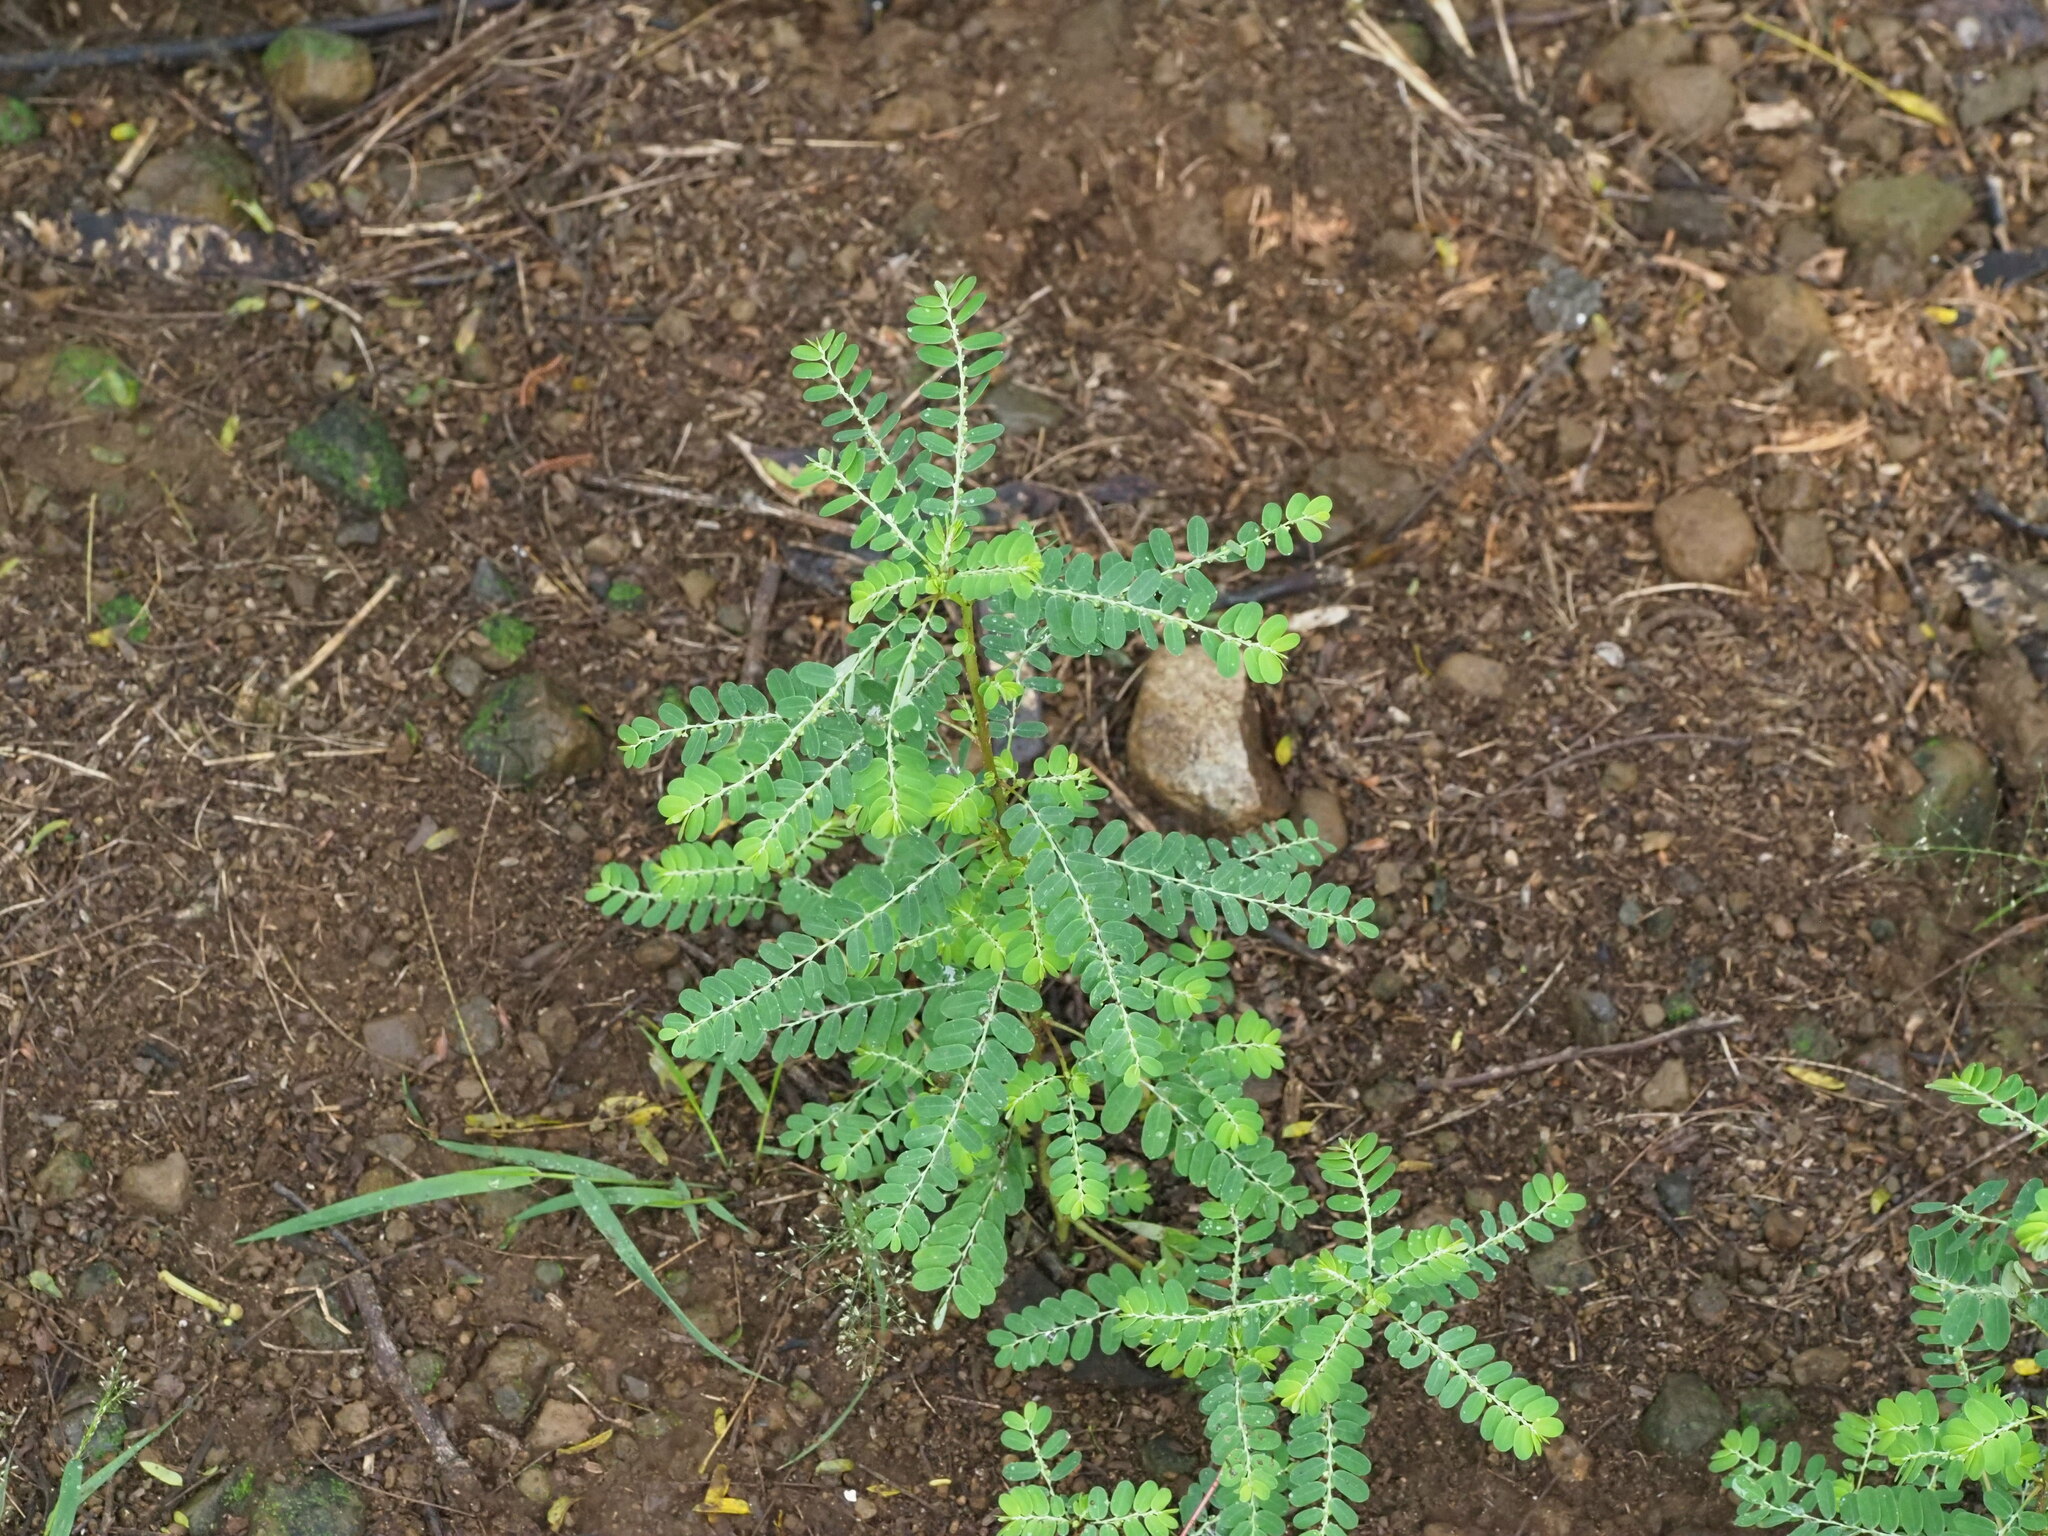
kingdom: Plantae
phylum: Tracheophyta
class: Magnoliopsida
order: Malpighiales
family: Phyllanthaceae
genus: Phyllanthus
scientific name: Phyllanthus amarus
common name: Carry me seed
